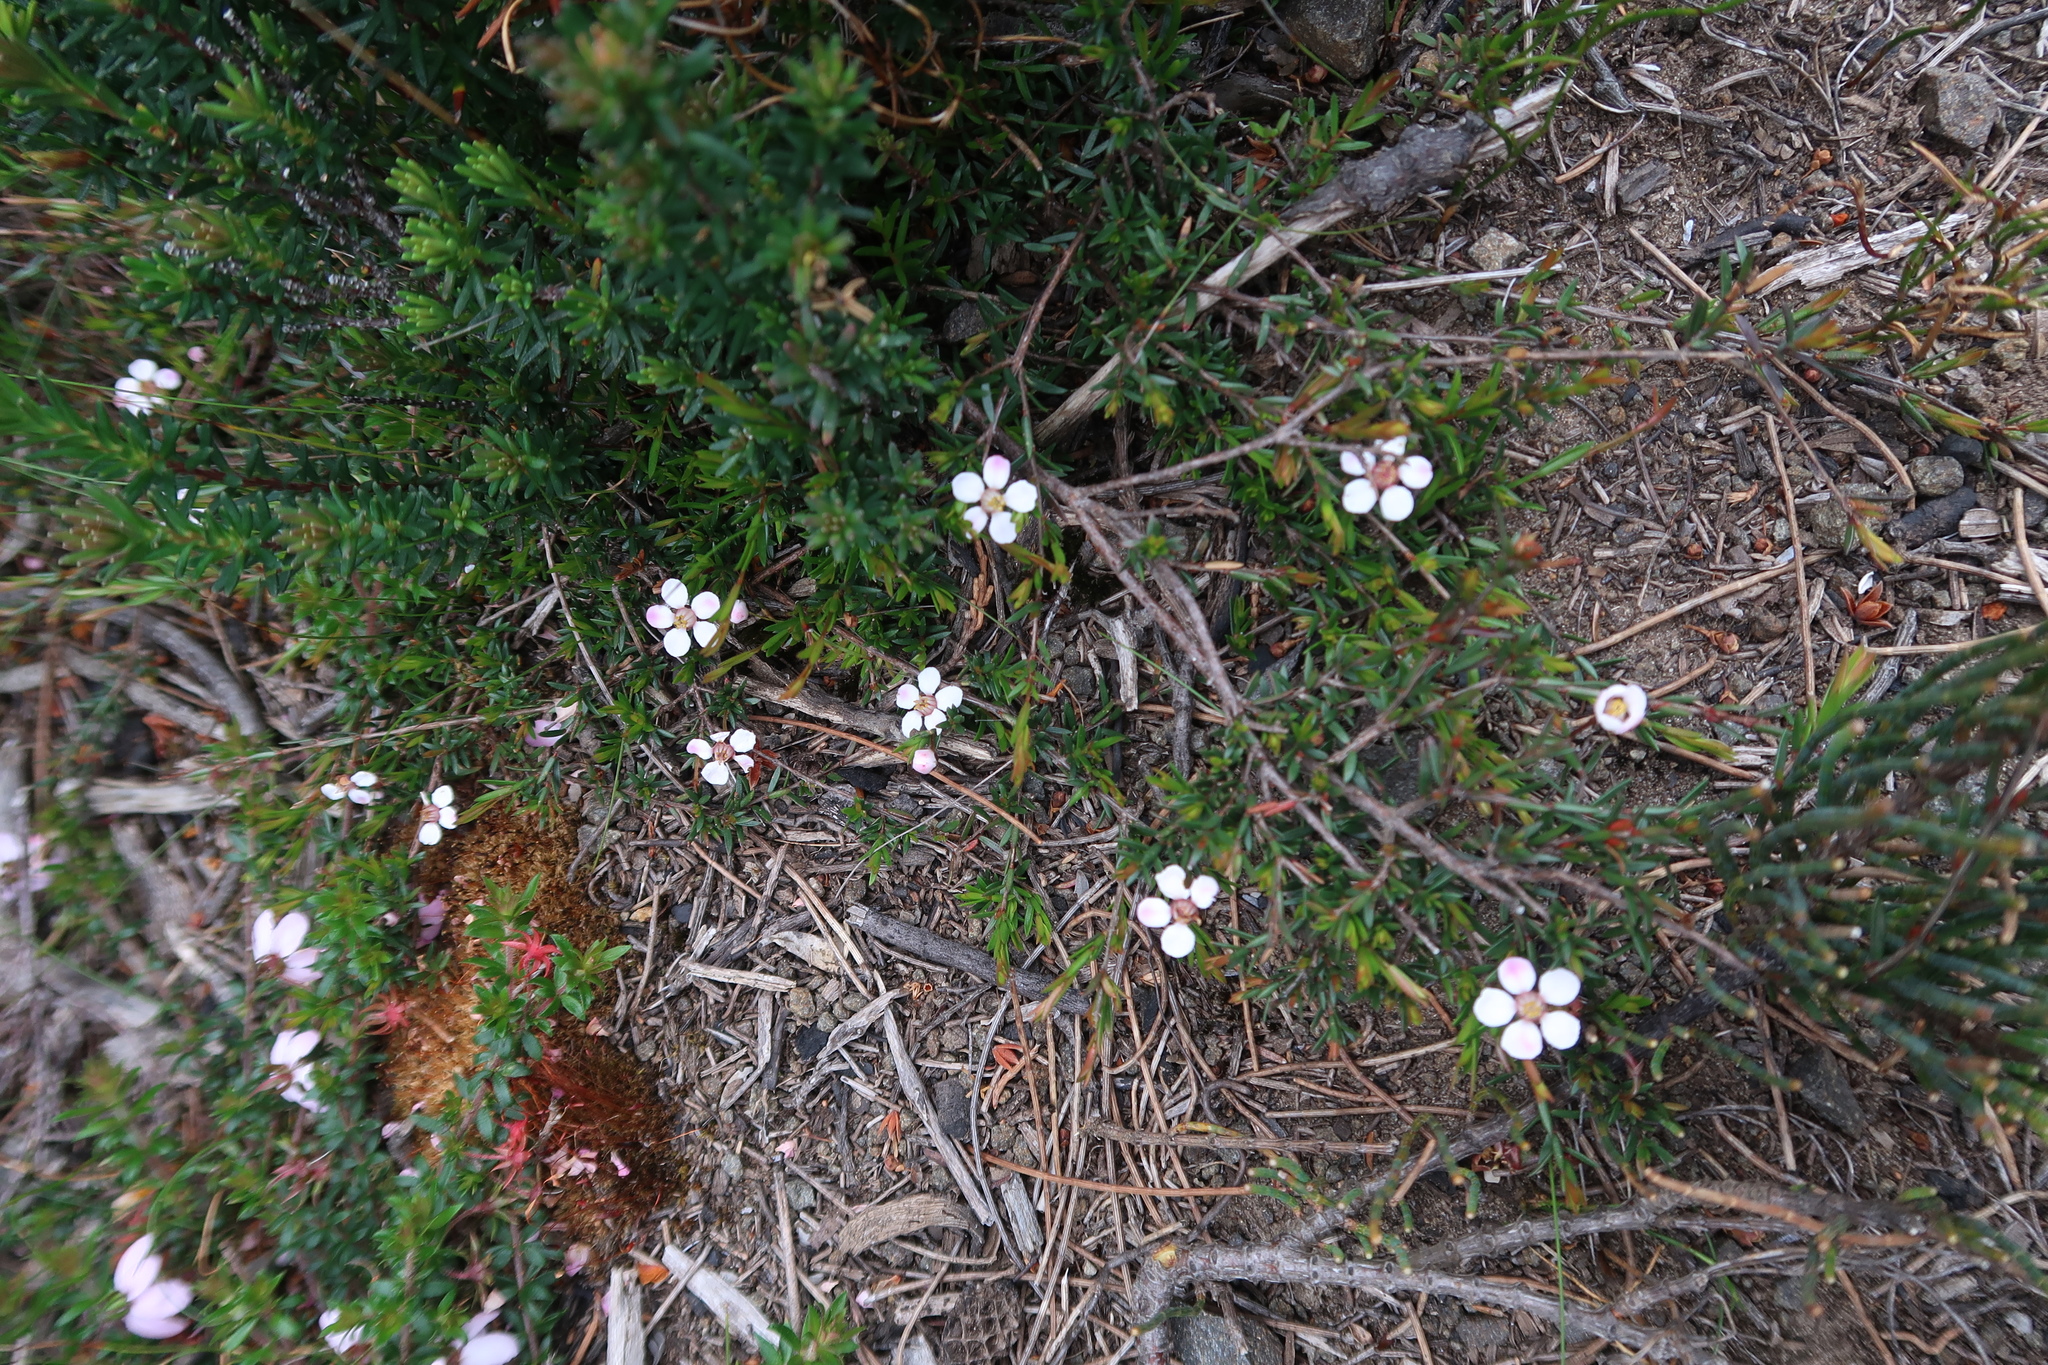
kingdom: Plantae
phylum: Tracheophyta
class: Magnoliopsida
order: Myrtales
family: Myrtaceae
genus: Euryomyrtus
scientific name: Euryomyrtus ramosissima
